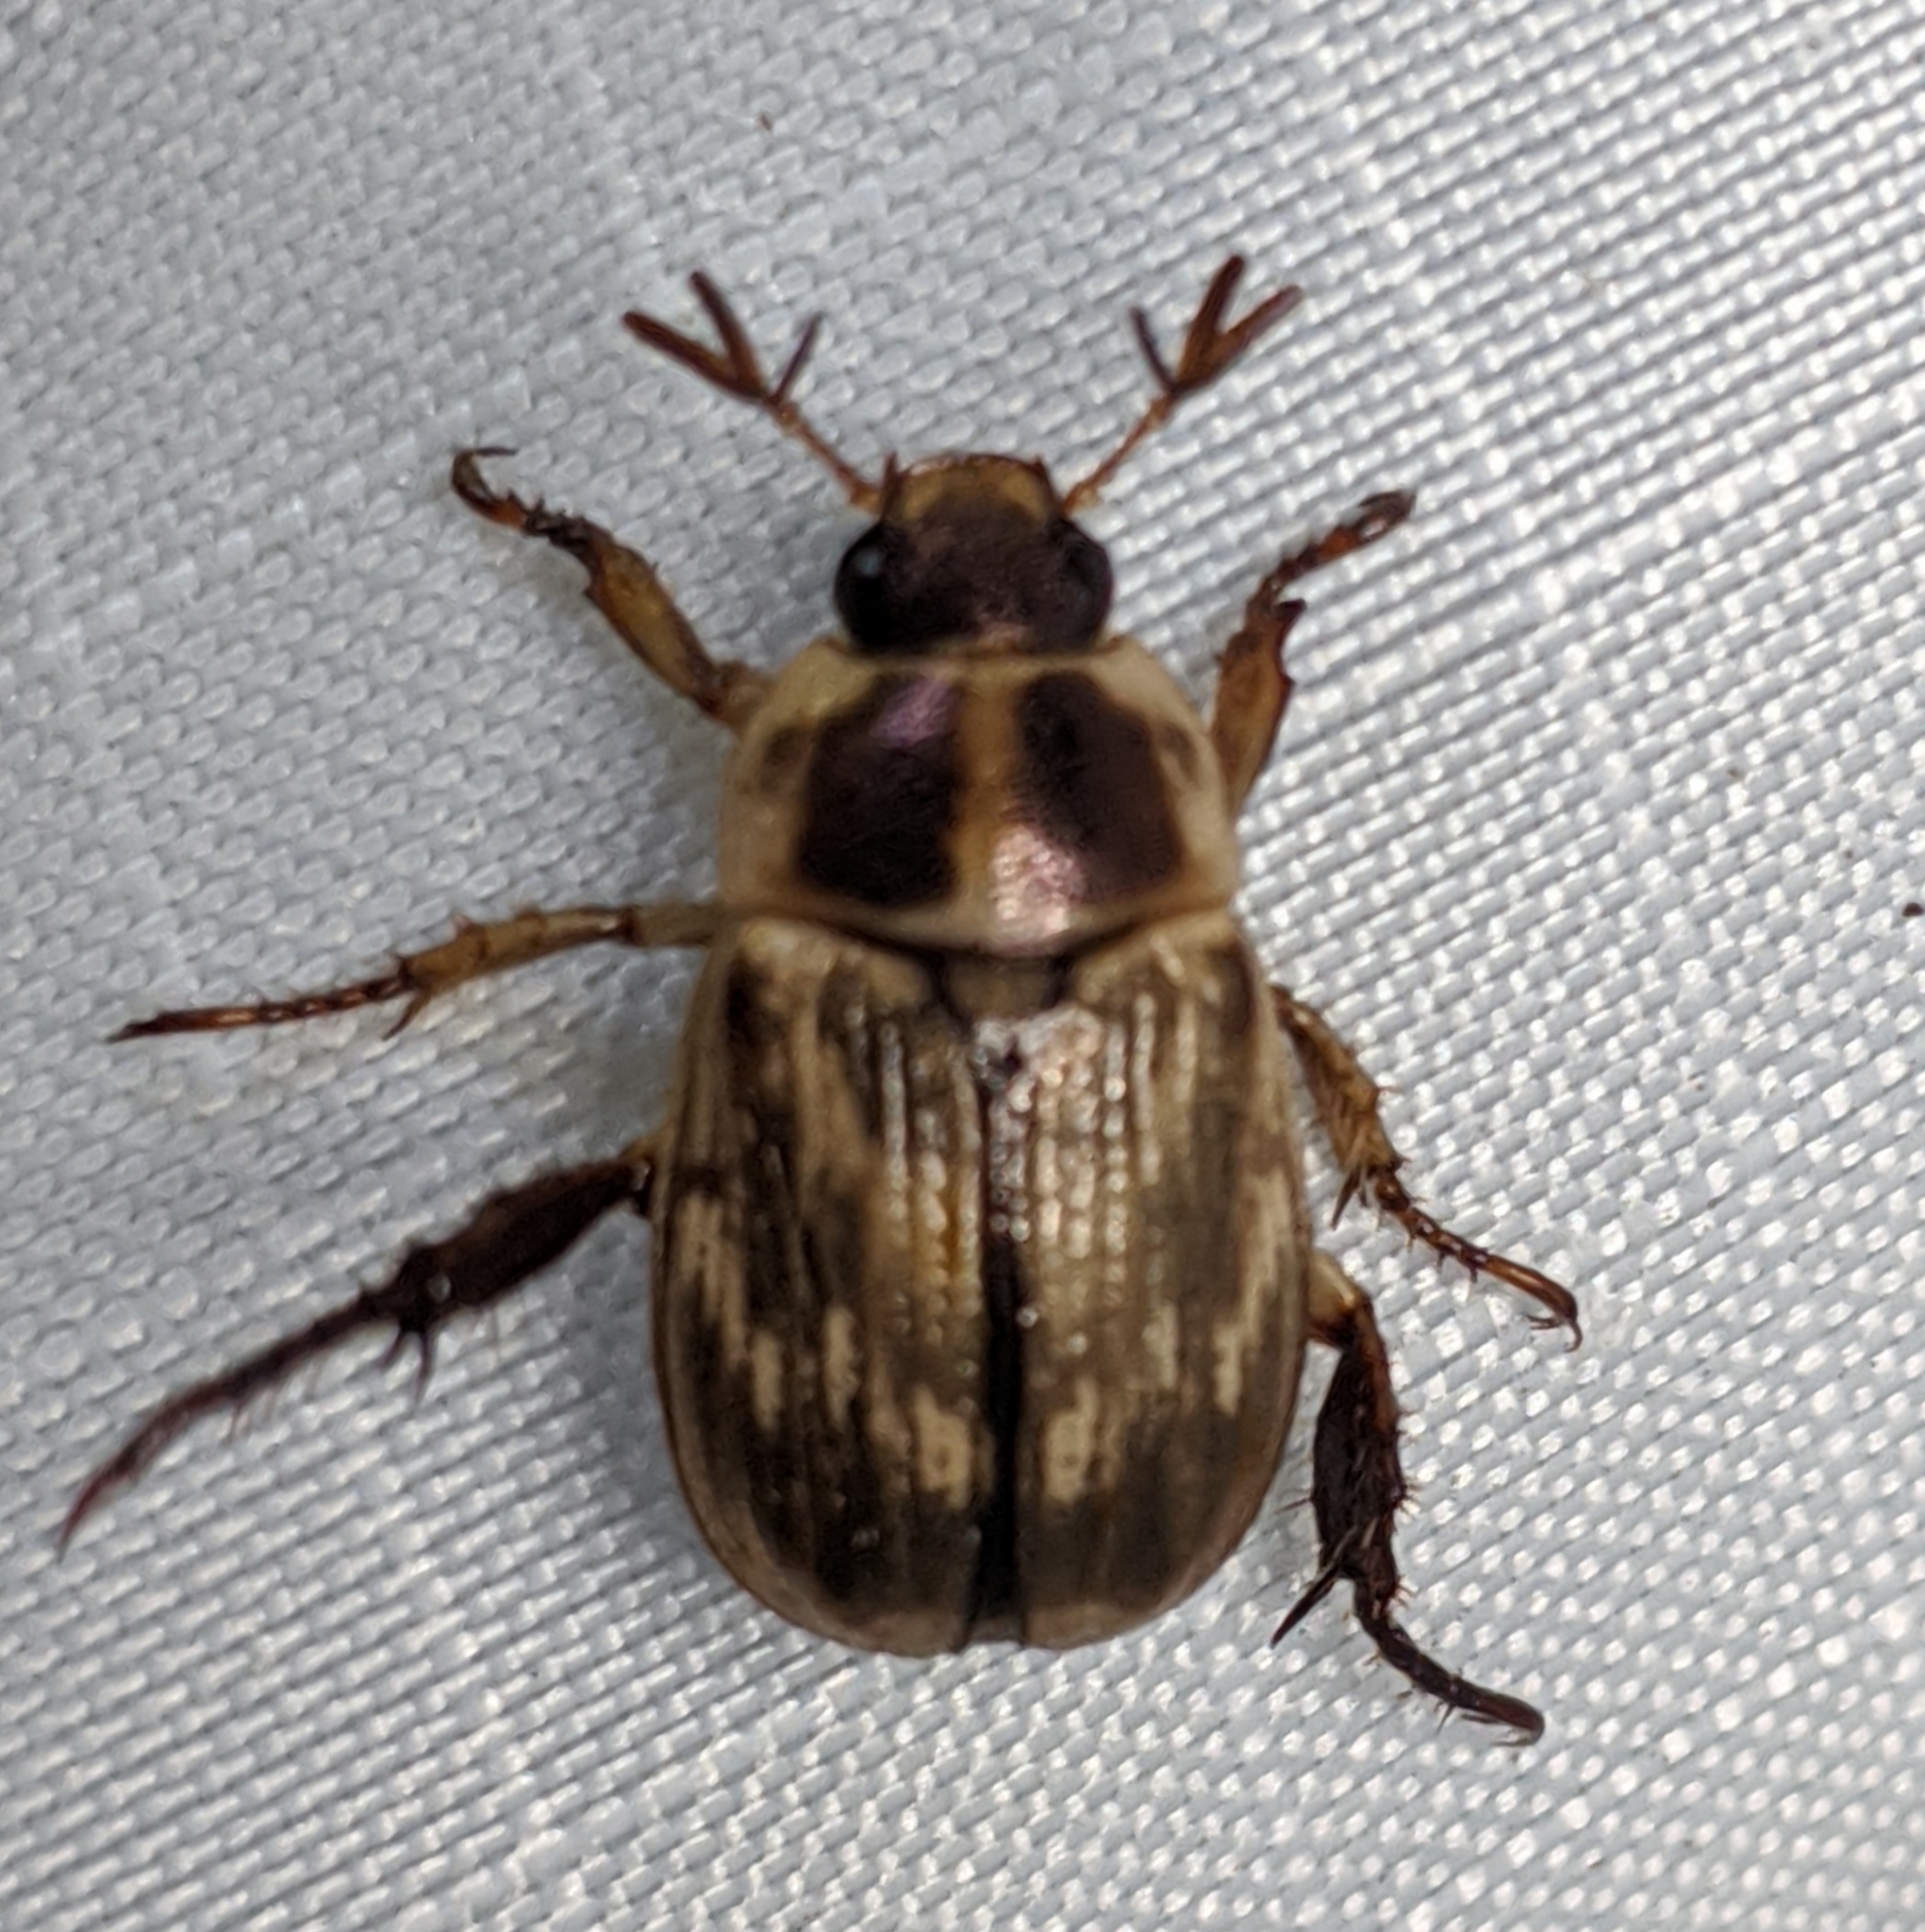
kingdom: Animalia
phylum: Arthropoda
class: Insecta
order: Coleoptera
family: Scarabaeidae
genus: Exomala
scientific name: Exomala orientalis
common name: Oriental beetle
